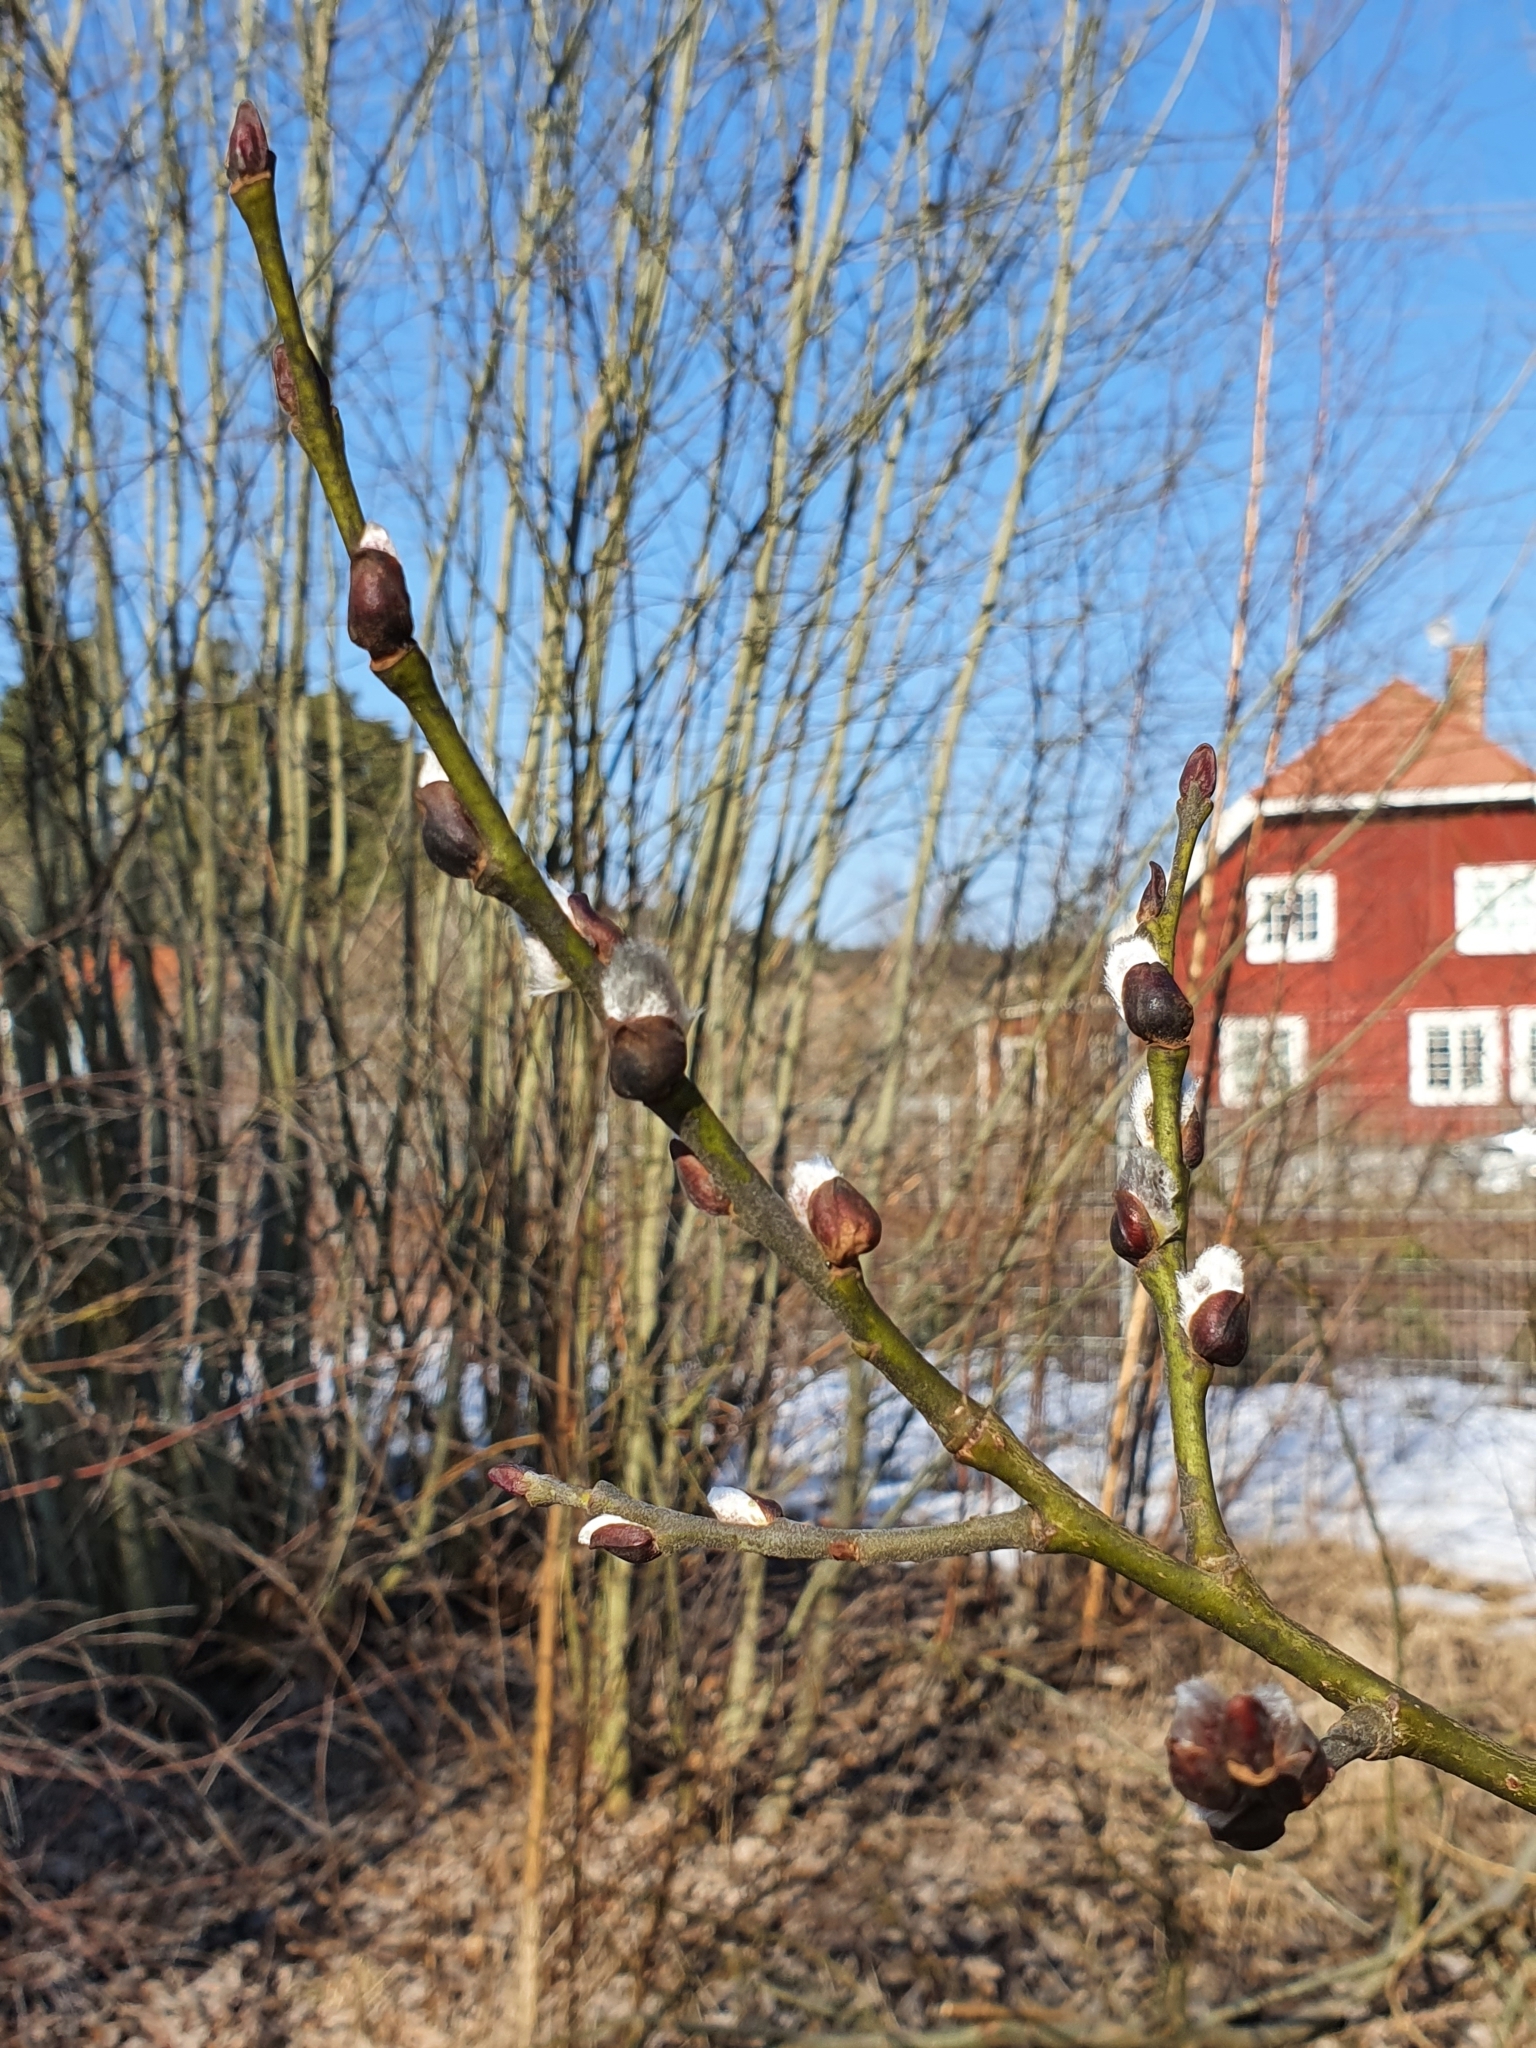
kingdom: Plantae
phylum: Tracheophyta
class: Magnoliopsida
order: Malpighiales
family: Salicaceae
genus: Salix
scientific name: Salix caprea
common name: Goat willow
